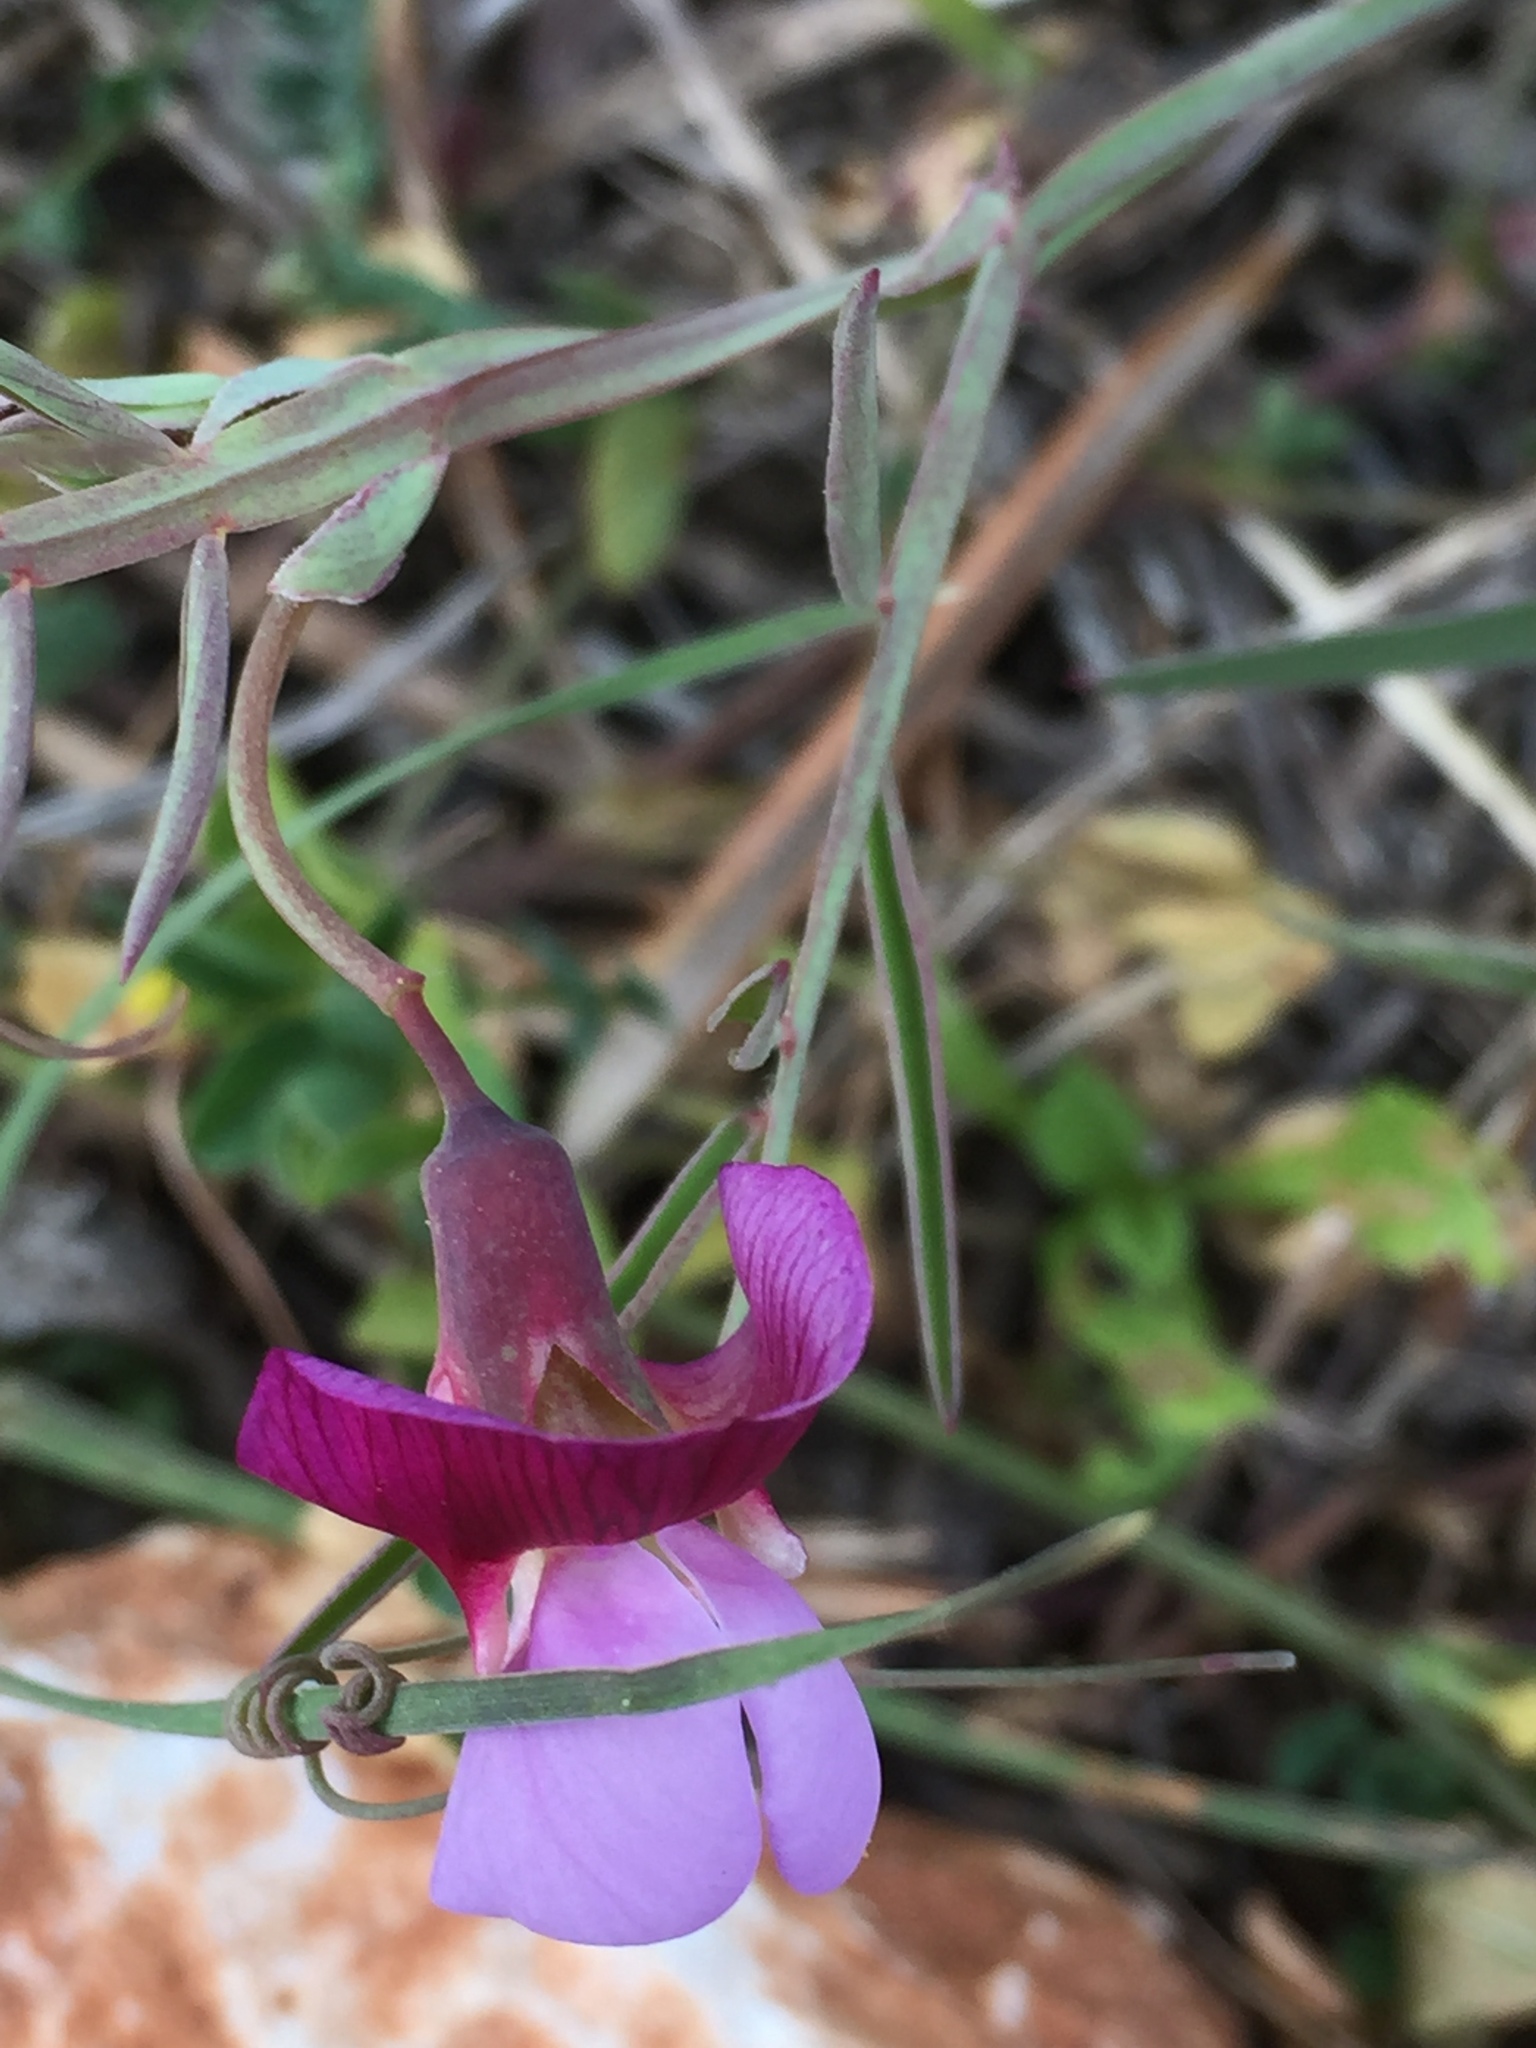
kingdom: Plantae
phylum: Tracheophyta
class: Magnoliopsida
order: Fabales
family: Fabaceae
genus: Lathyrus
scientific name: Lathyrus cicera
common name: Red vetchling
